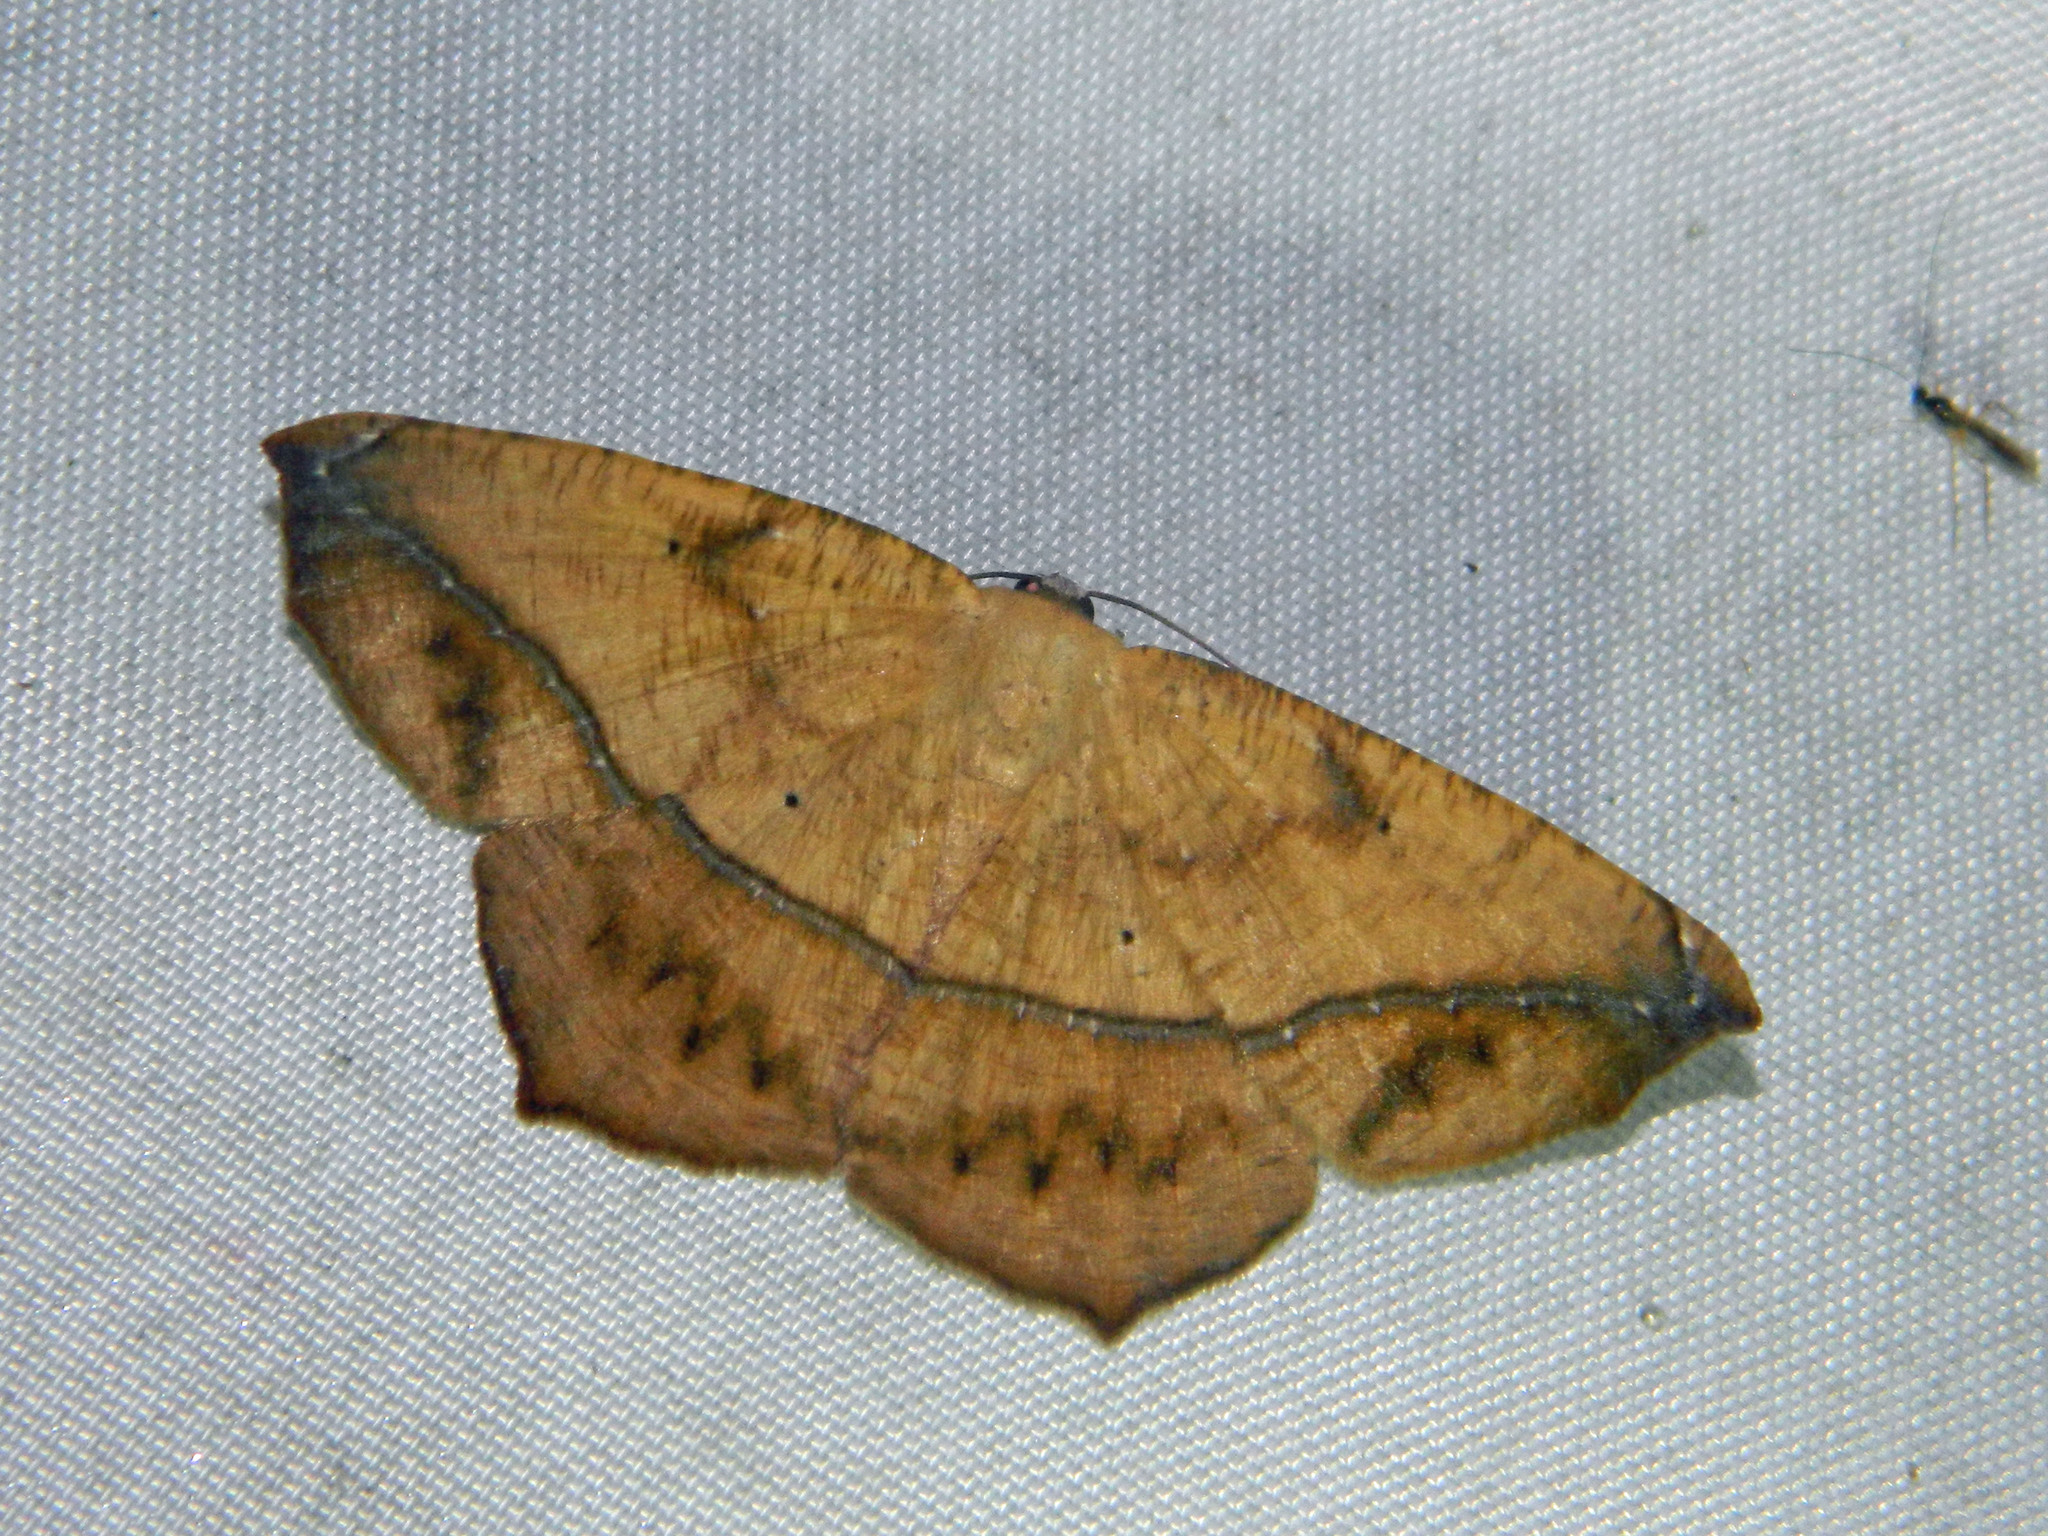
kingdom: Animalia
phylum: Arthropoda
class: Insecta
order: Lepidoptera
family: Geometridae
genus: Prochoerodes
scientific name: Prochoerodes lineola
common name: Large maple spanworm
